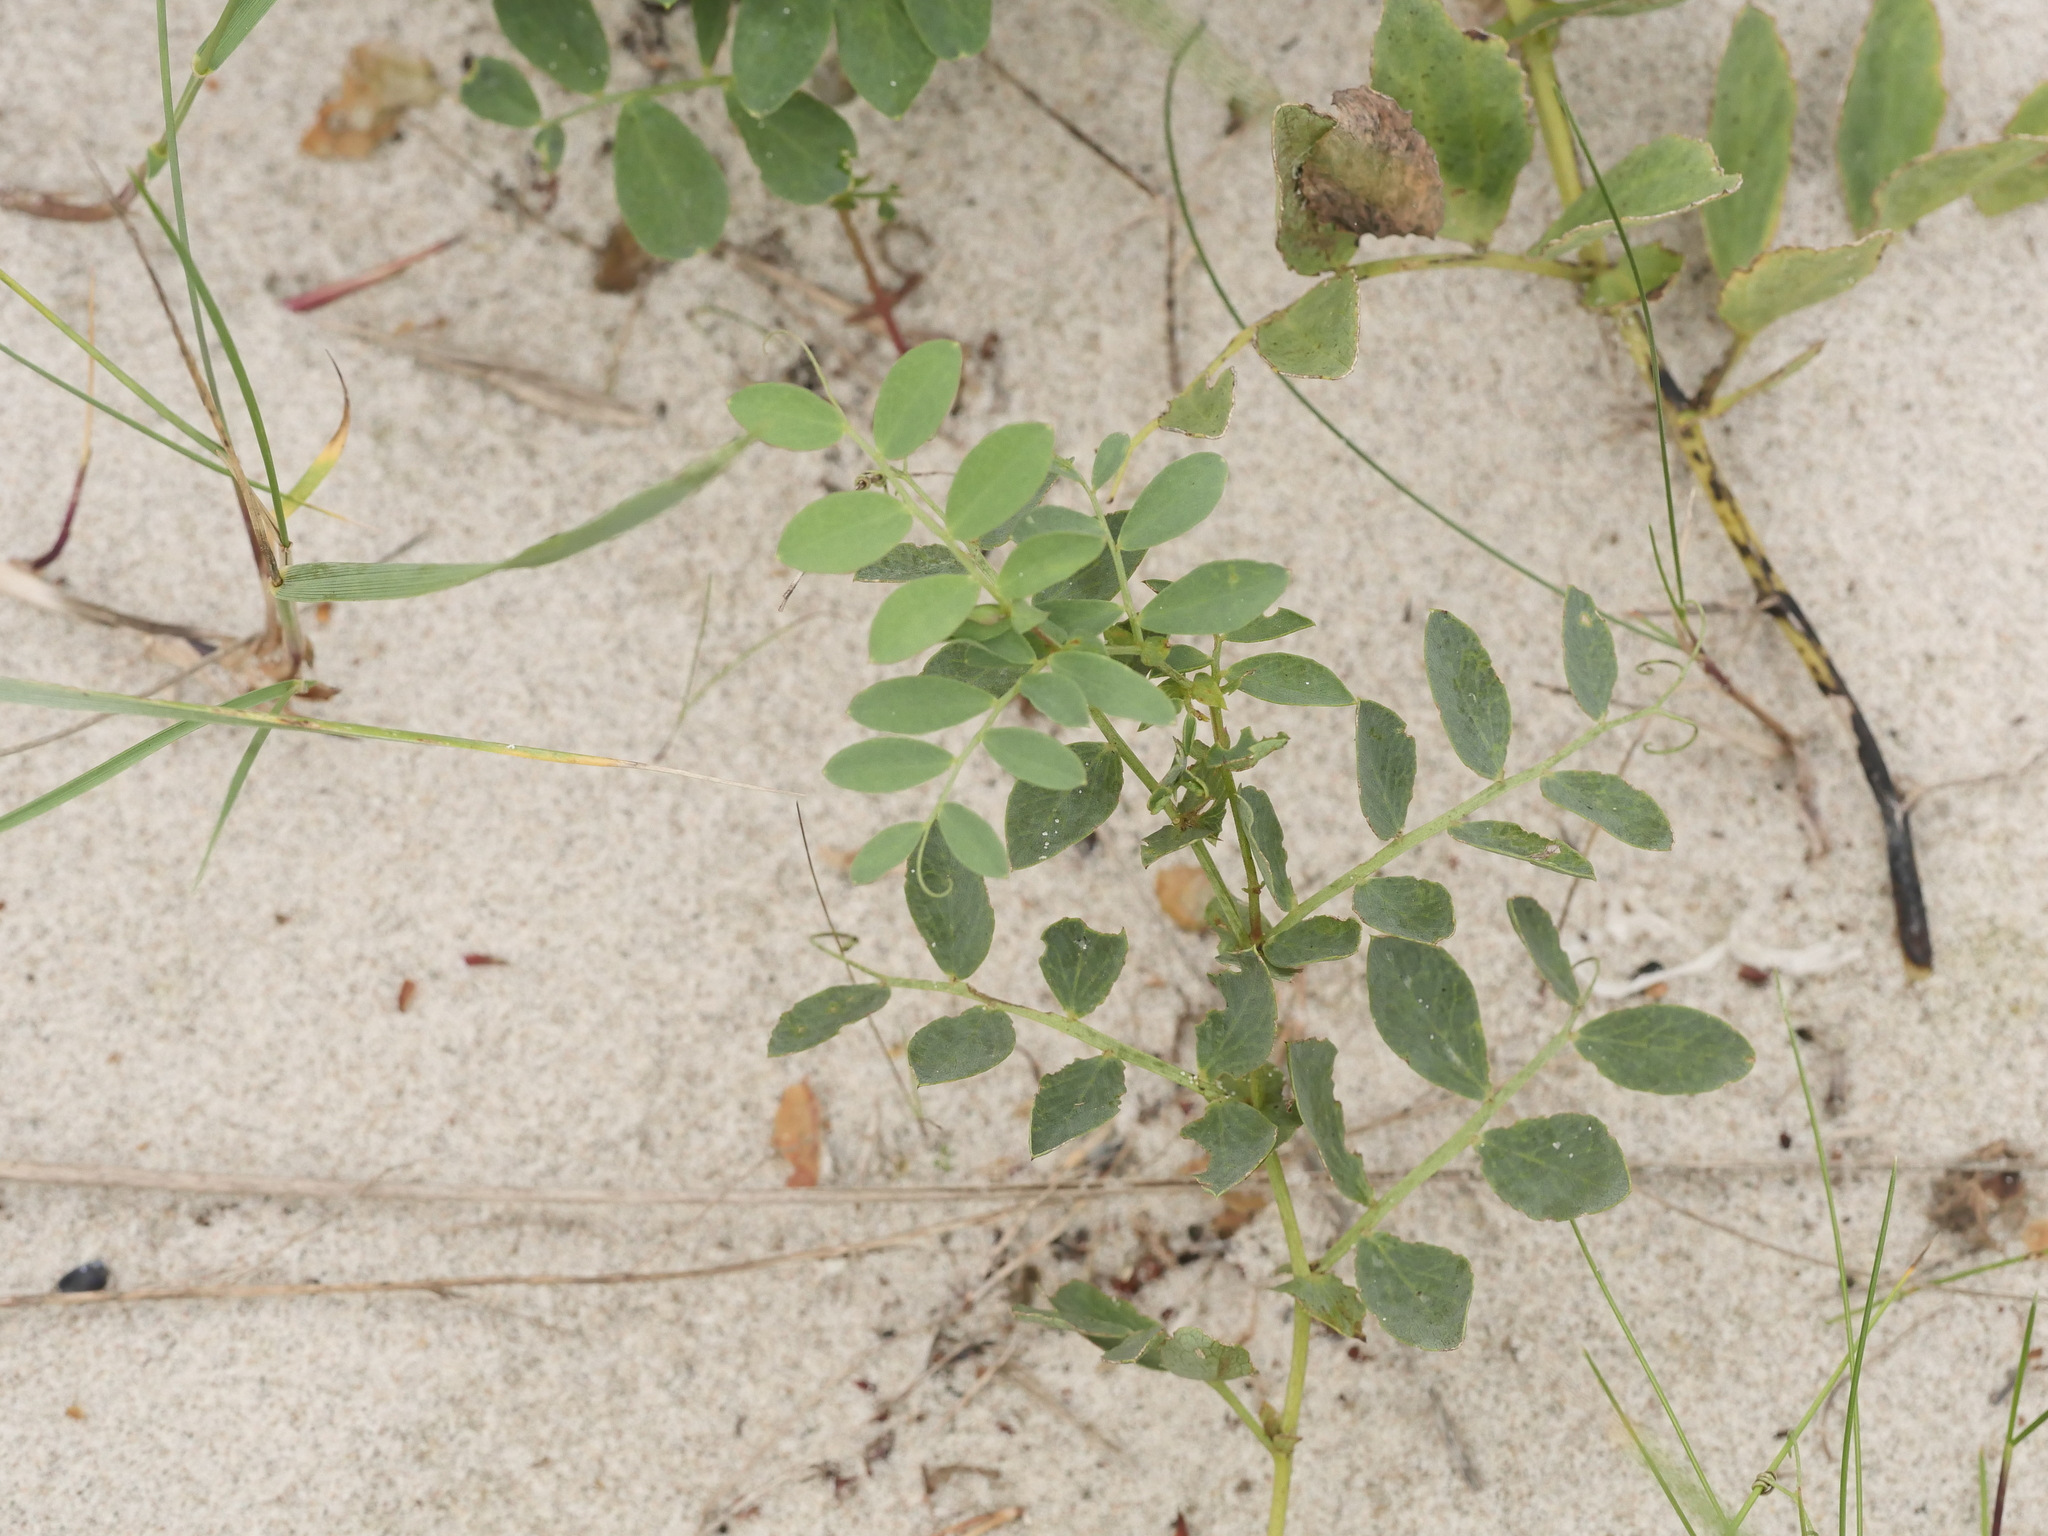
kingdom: Plantae
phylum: Tracheophyta
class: Magnoliopsida
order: Fabales
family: Fabaceae
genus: Lathyrus
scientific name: Lathyrus japonicus
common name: Sea pea
